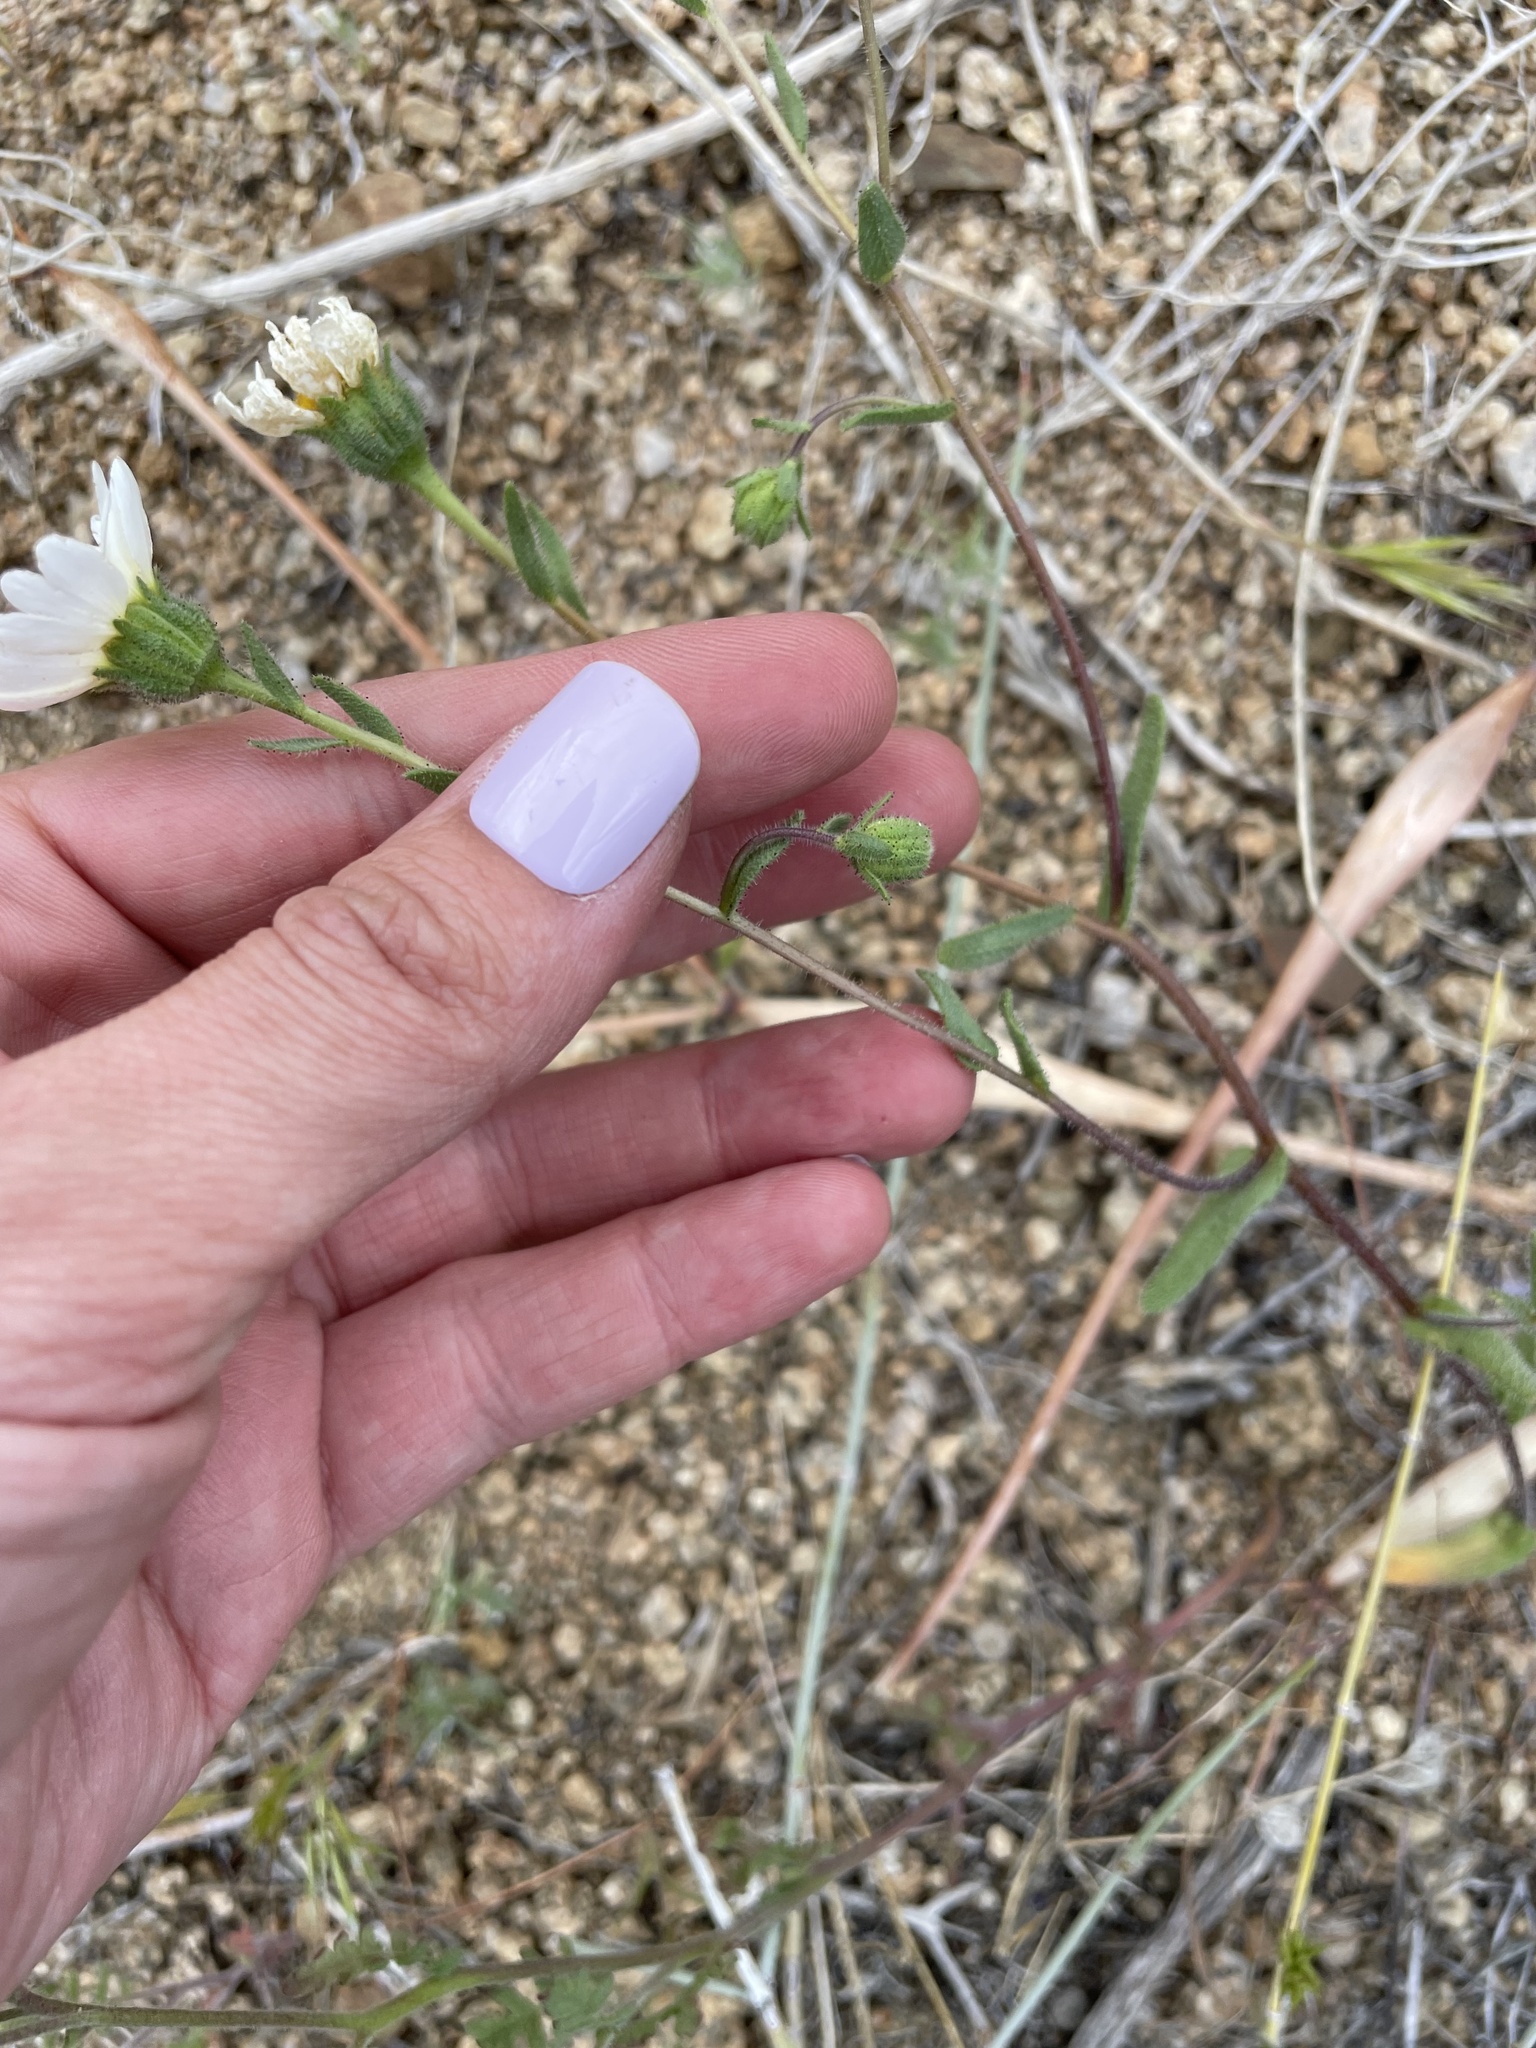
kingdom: Plantae
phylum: Tracheophyta
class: Magnoliopsida
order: Asterales
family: Asteraceae
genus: Layia
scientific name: Layia glandulosa
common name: White layia
